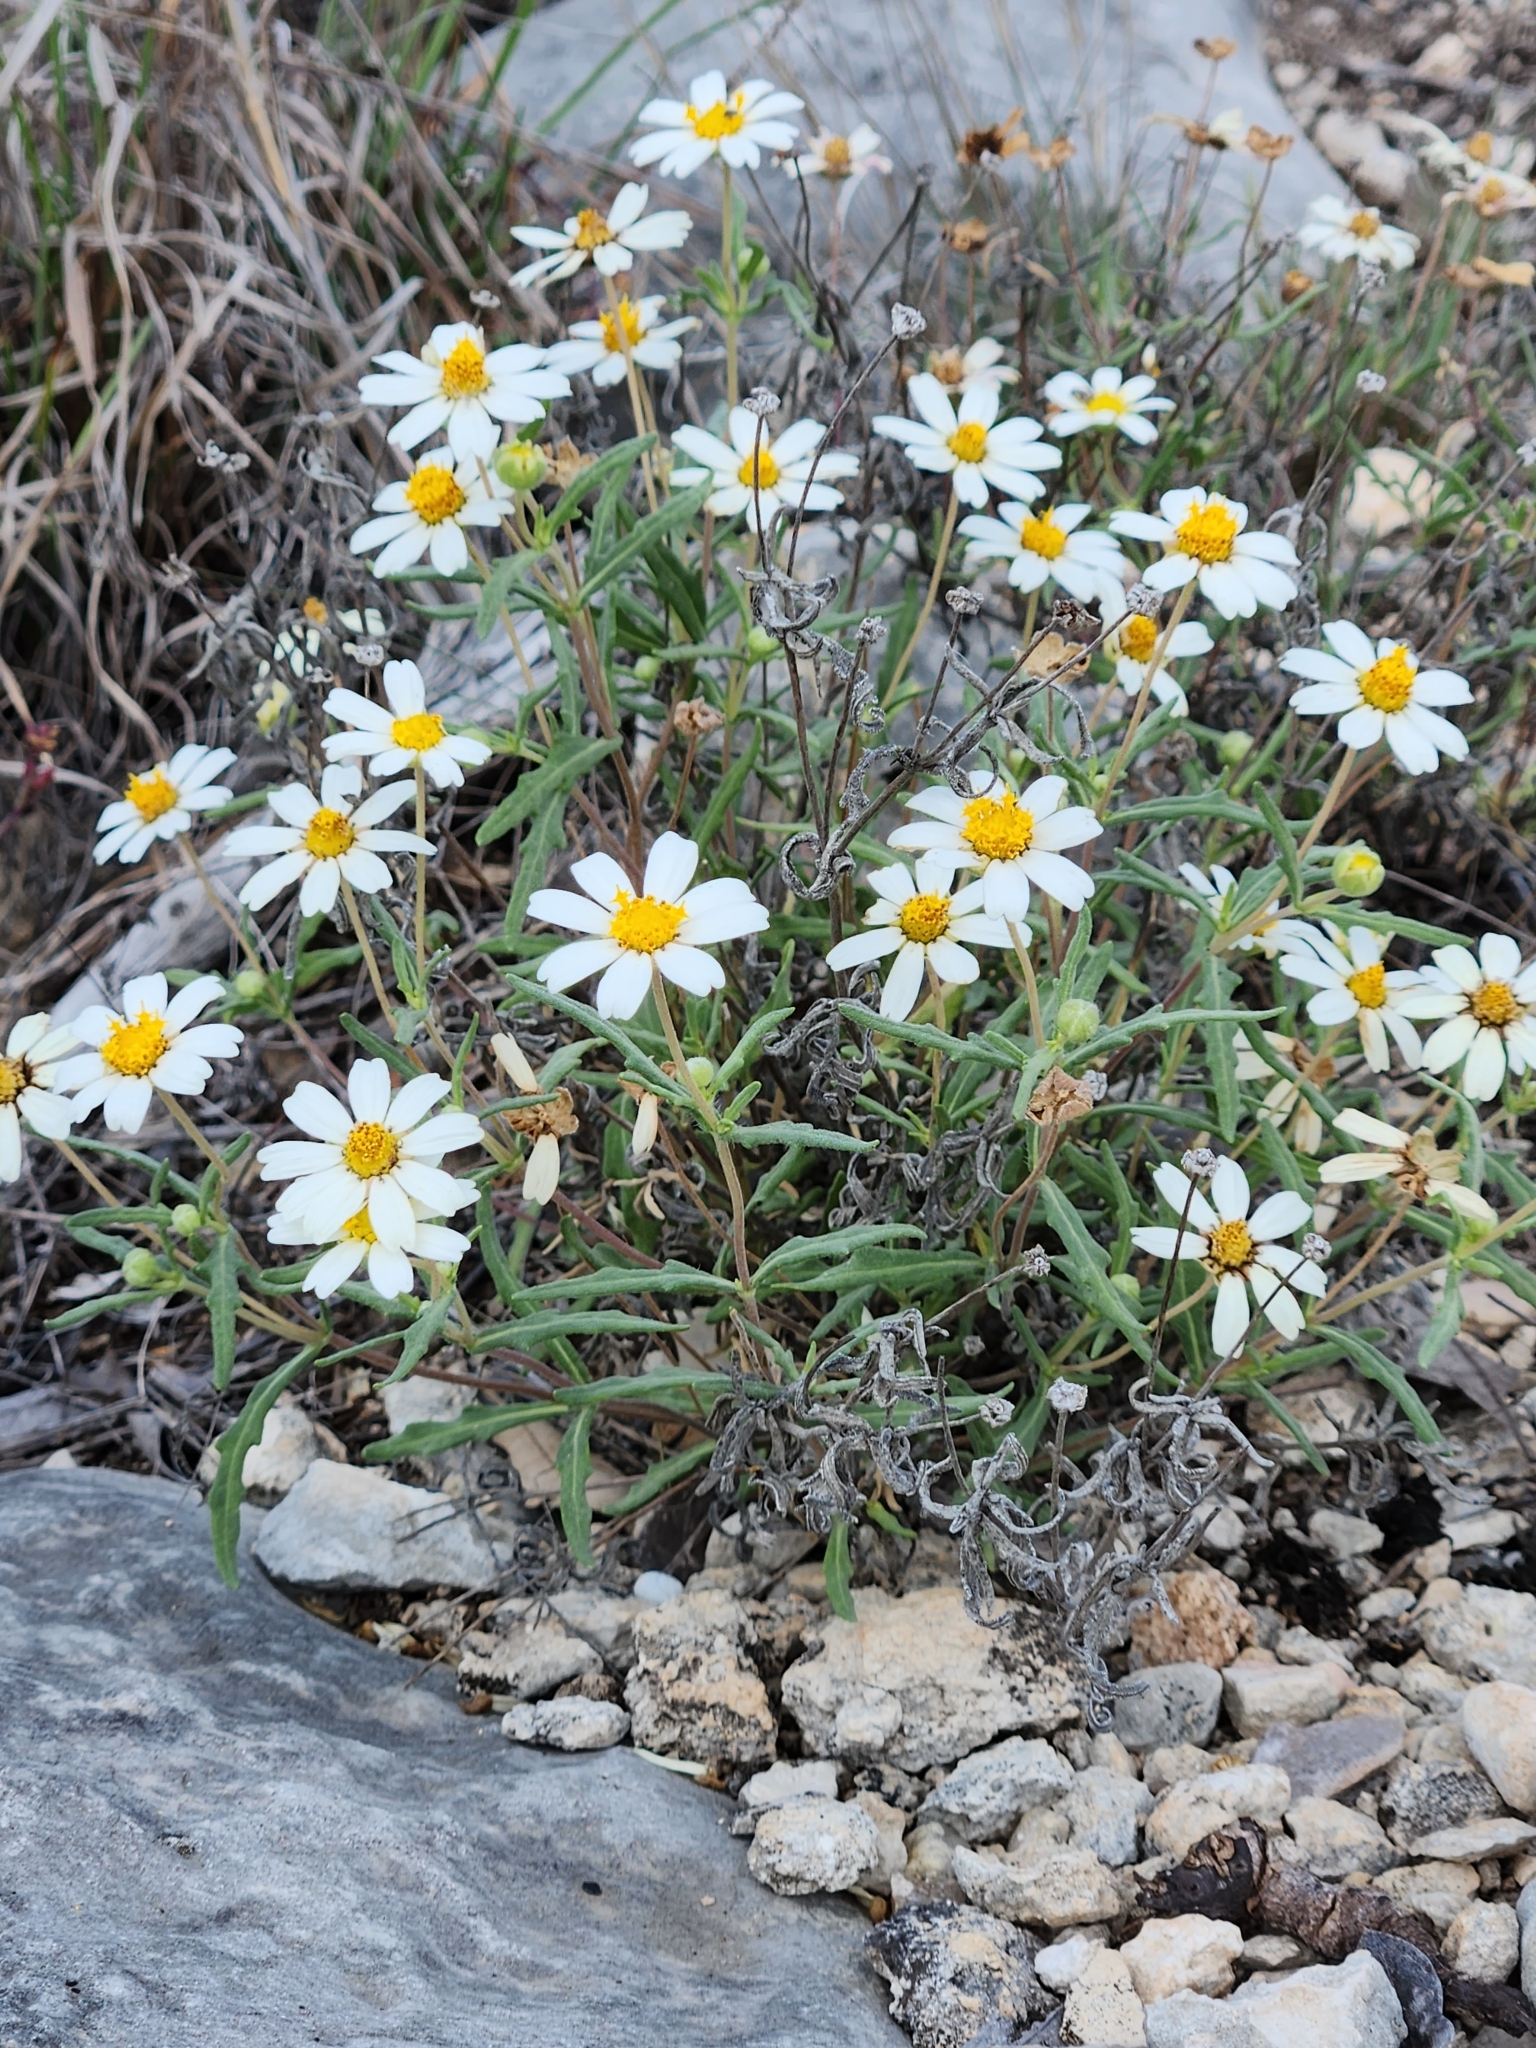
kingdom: Plantae
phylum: Tracheophyta
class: Magnoliopsida
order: Asterales
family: Asteraceae
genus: Melampodium
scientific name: Melampodium leucanthum
